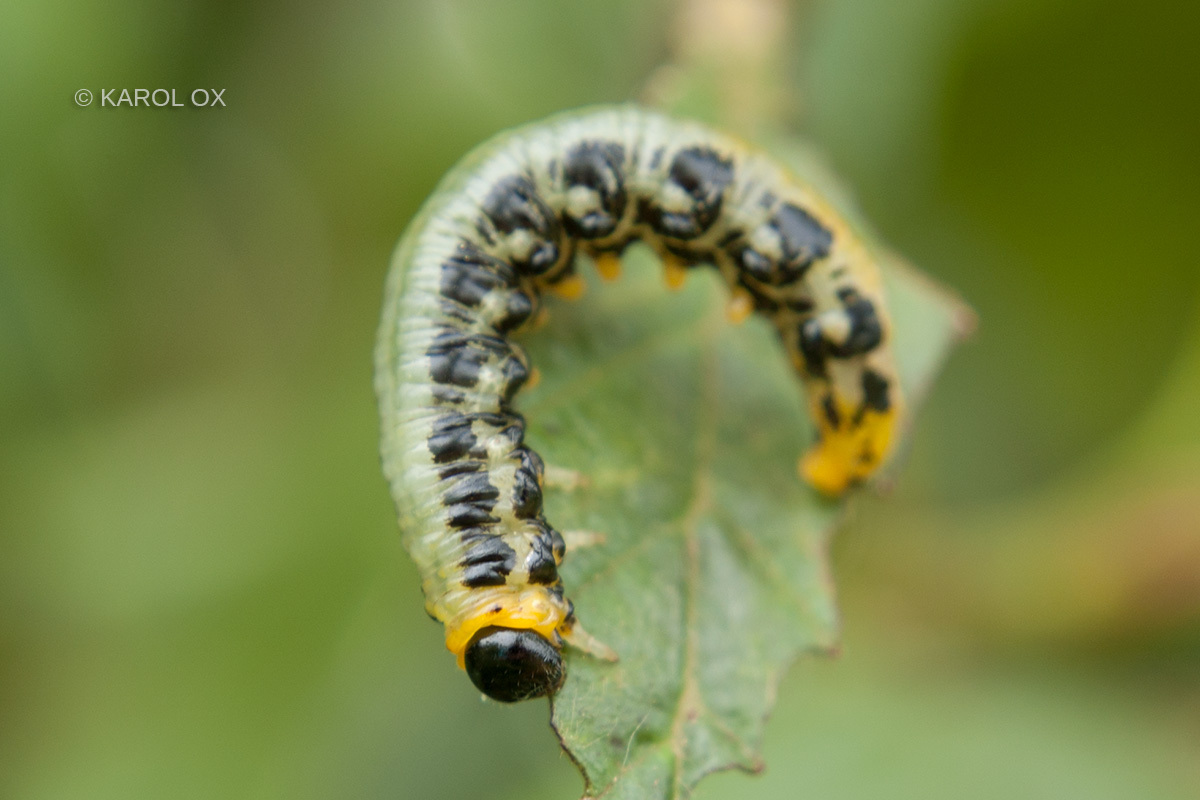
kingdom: Animalia
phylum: Arthropoda
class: Insecta
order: Hymenoptera
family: Tenthredinidae
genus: Craesus
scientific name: Craesus septentrionalis
